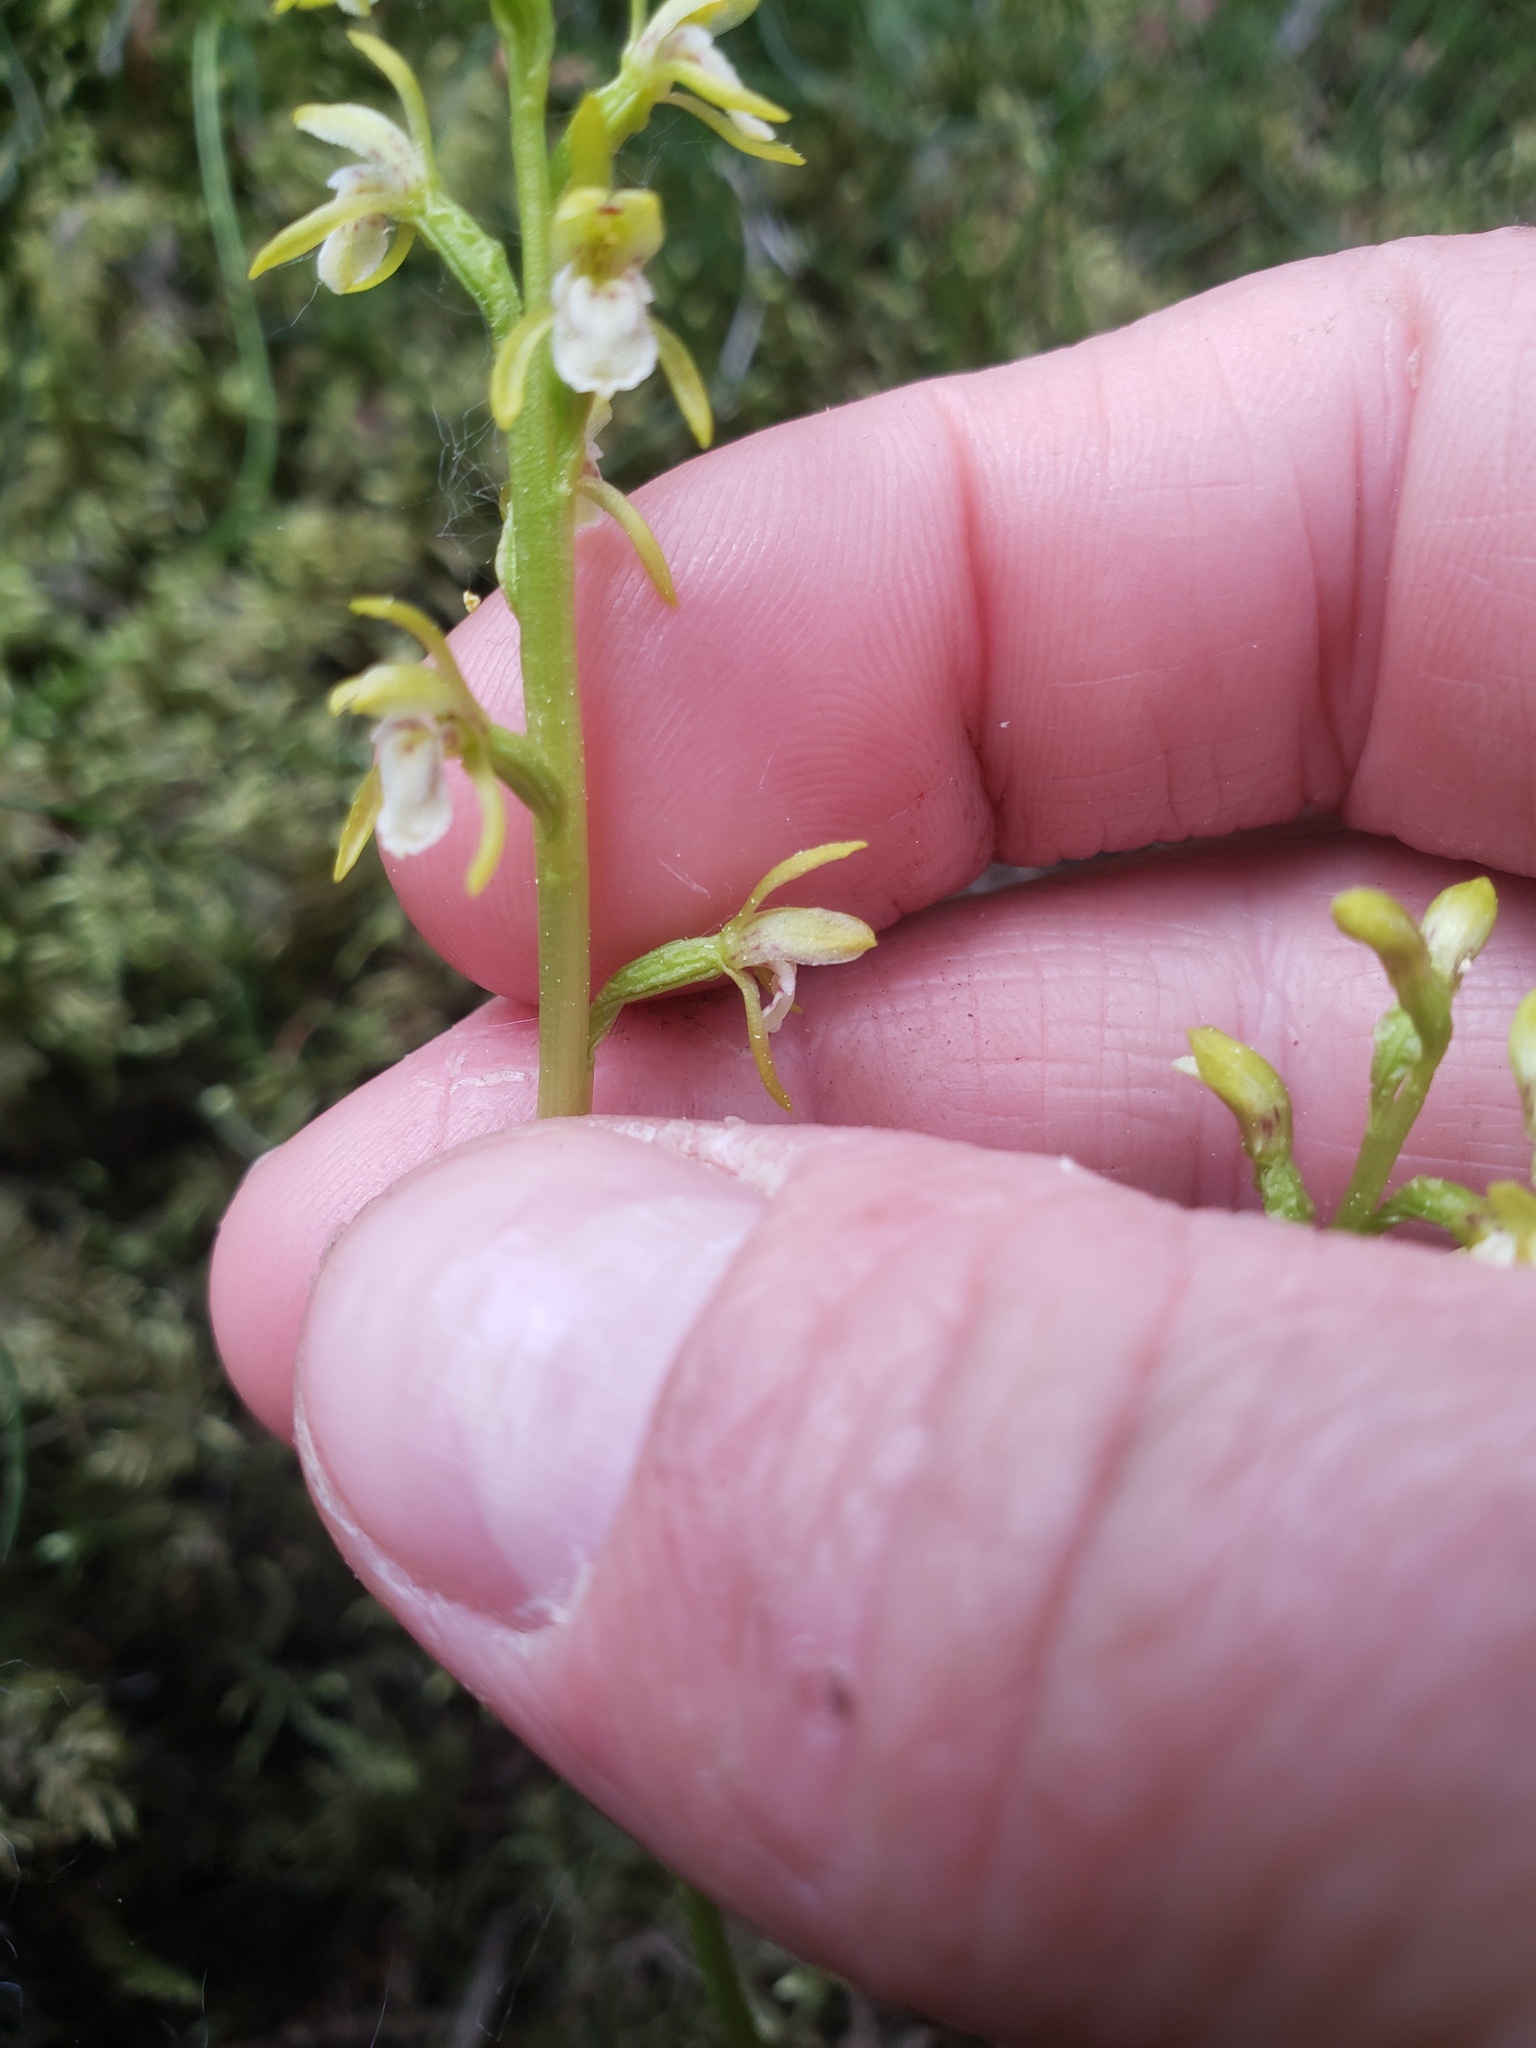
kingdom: Plantae
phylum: Tracheophyta
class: Liliopsida
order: Asparagales
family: Orchidaceae
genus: Corallorhiza
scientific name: Corallorhiza trifida
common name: Yellow coralroot
